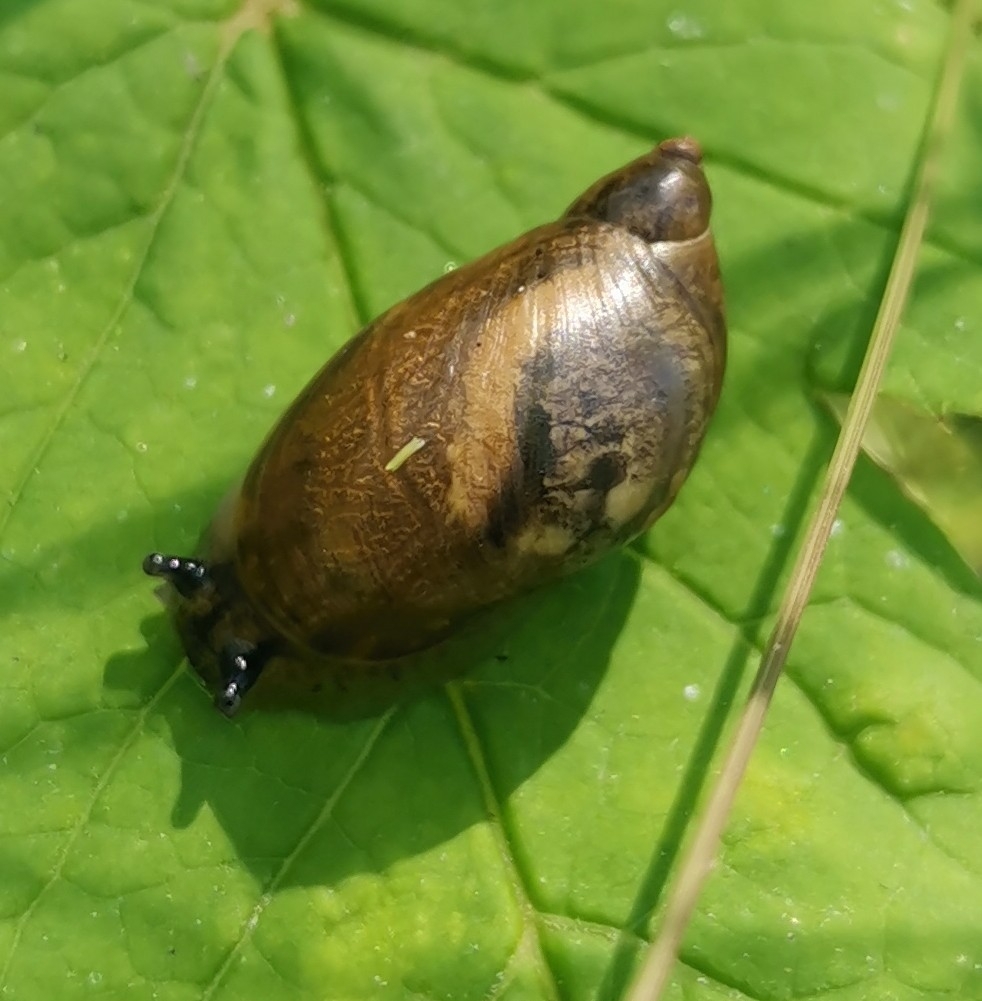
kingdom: Animalia
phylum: Mollusca
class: Gastropoda
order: Stylommatophora
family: Succineidae
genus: Succinea
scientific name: Succinea putris
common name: European ambersnail
